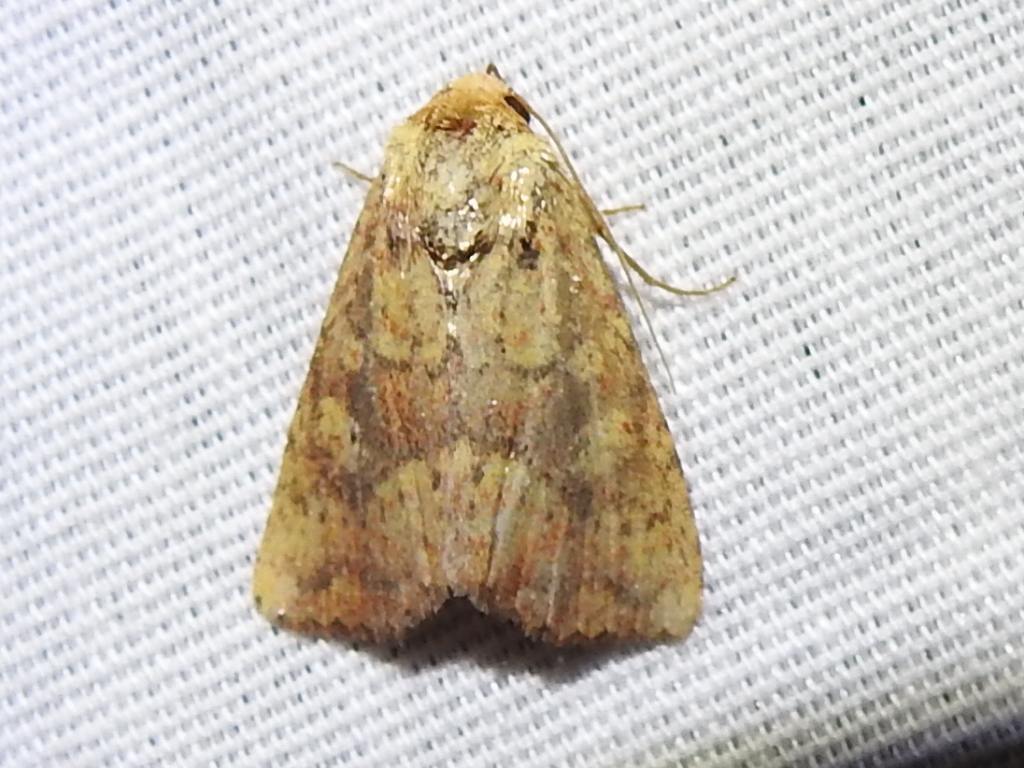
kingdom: Animalia
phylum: Arthropoda
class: Insecta
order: Lepidoptera
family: Noctuidae
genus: Perigea
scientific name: Perigea xanthioides
